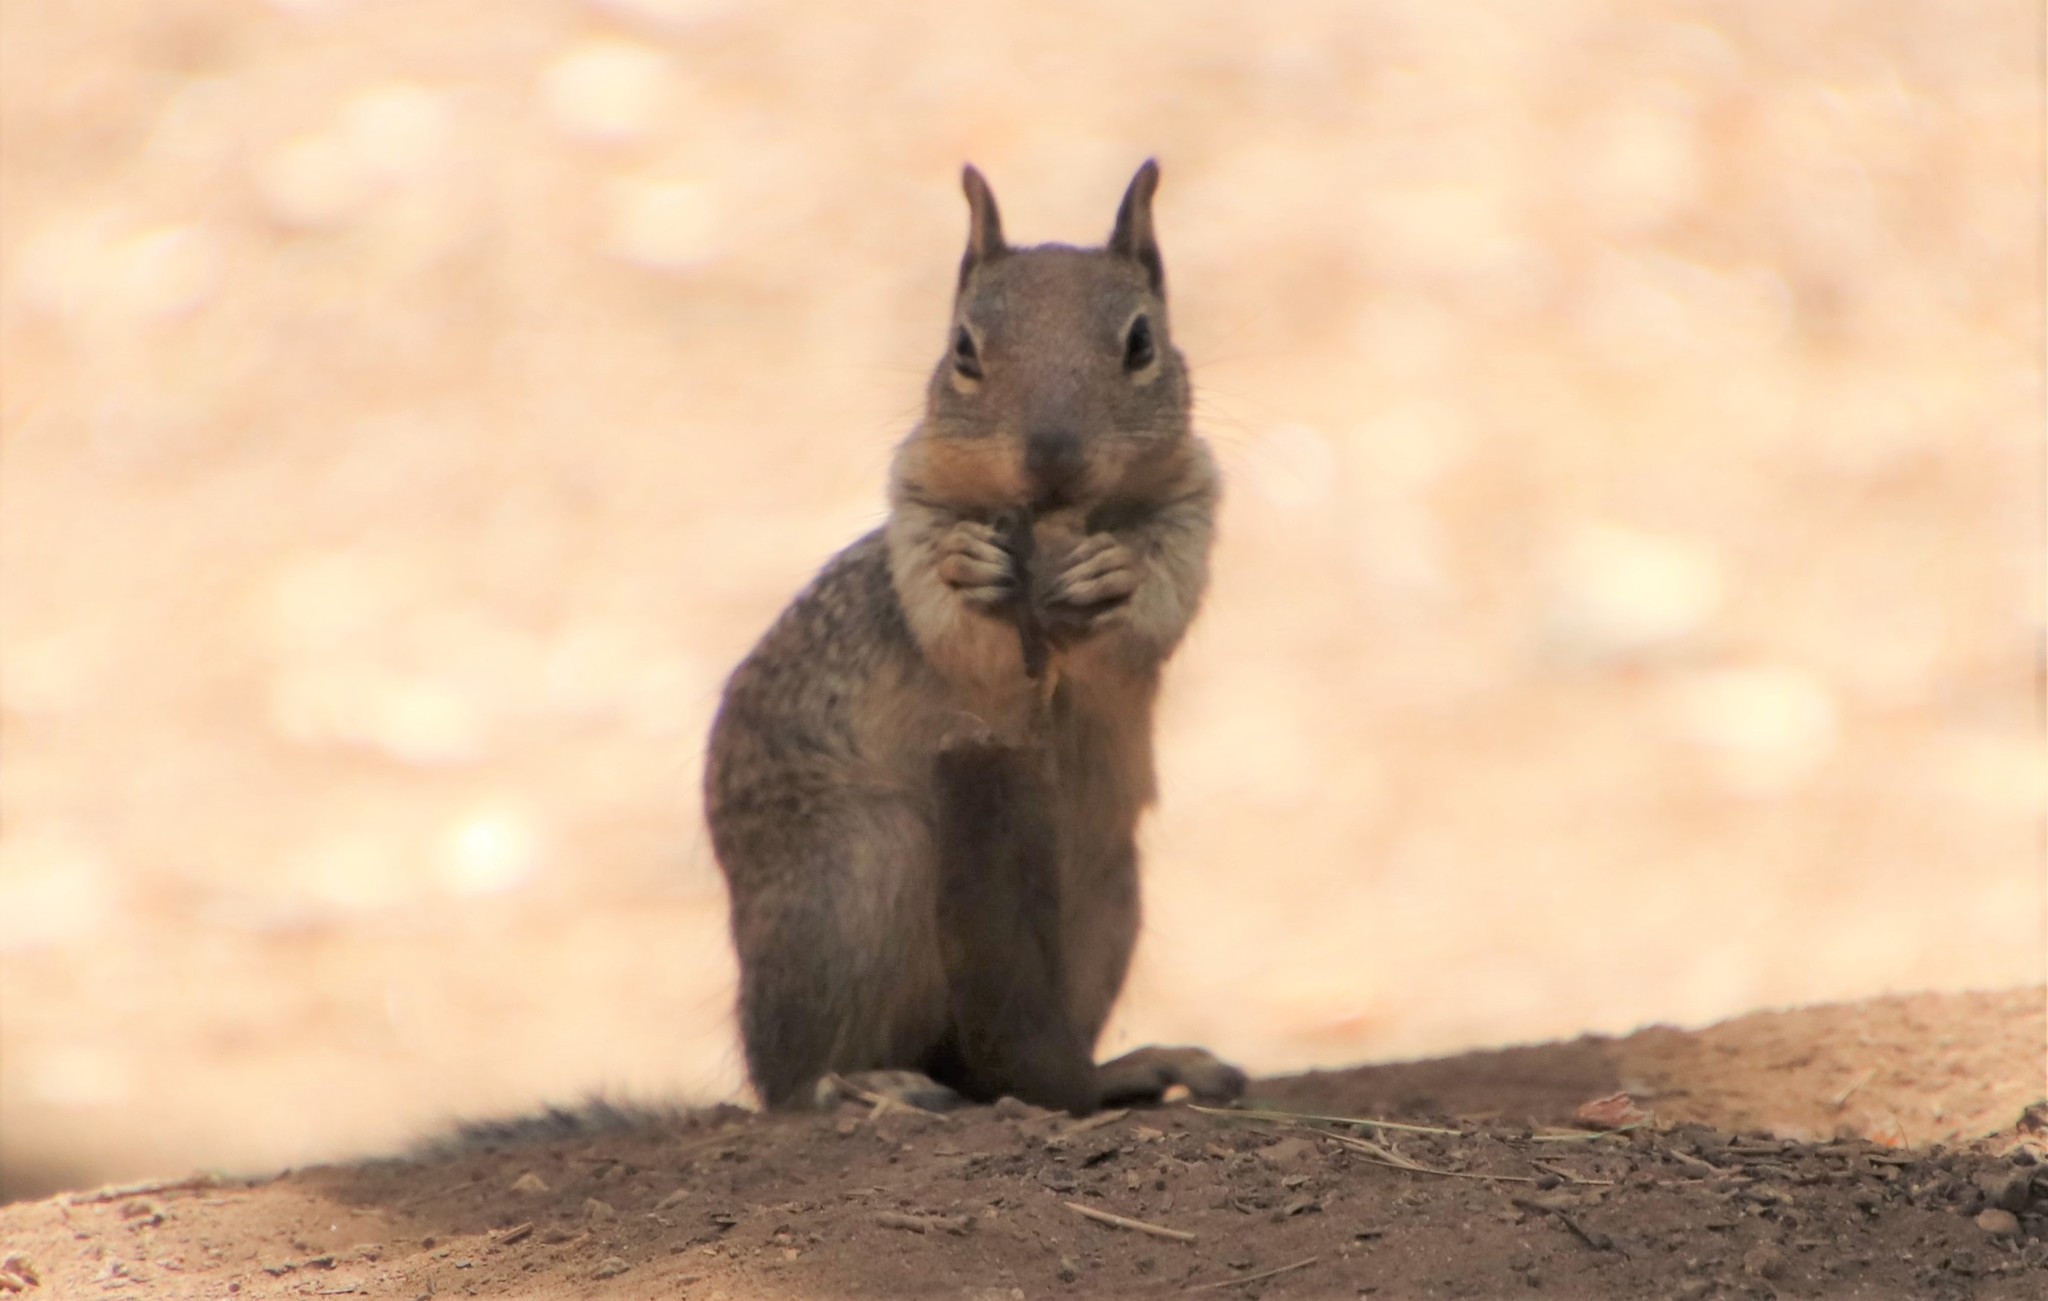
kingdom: Animalia
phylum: Chordata
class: Mammalia
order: Rodentia
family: Sciuridae
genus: Otospermophilus
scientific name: Otospermophilus beecheyi
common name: California ground squirrel
